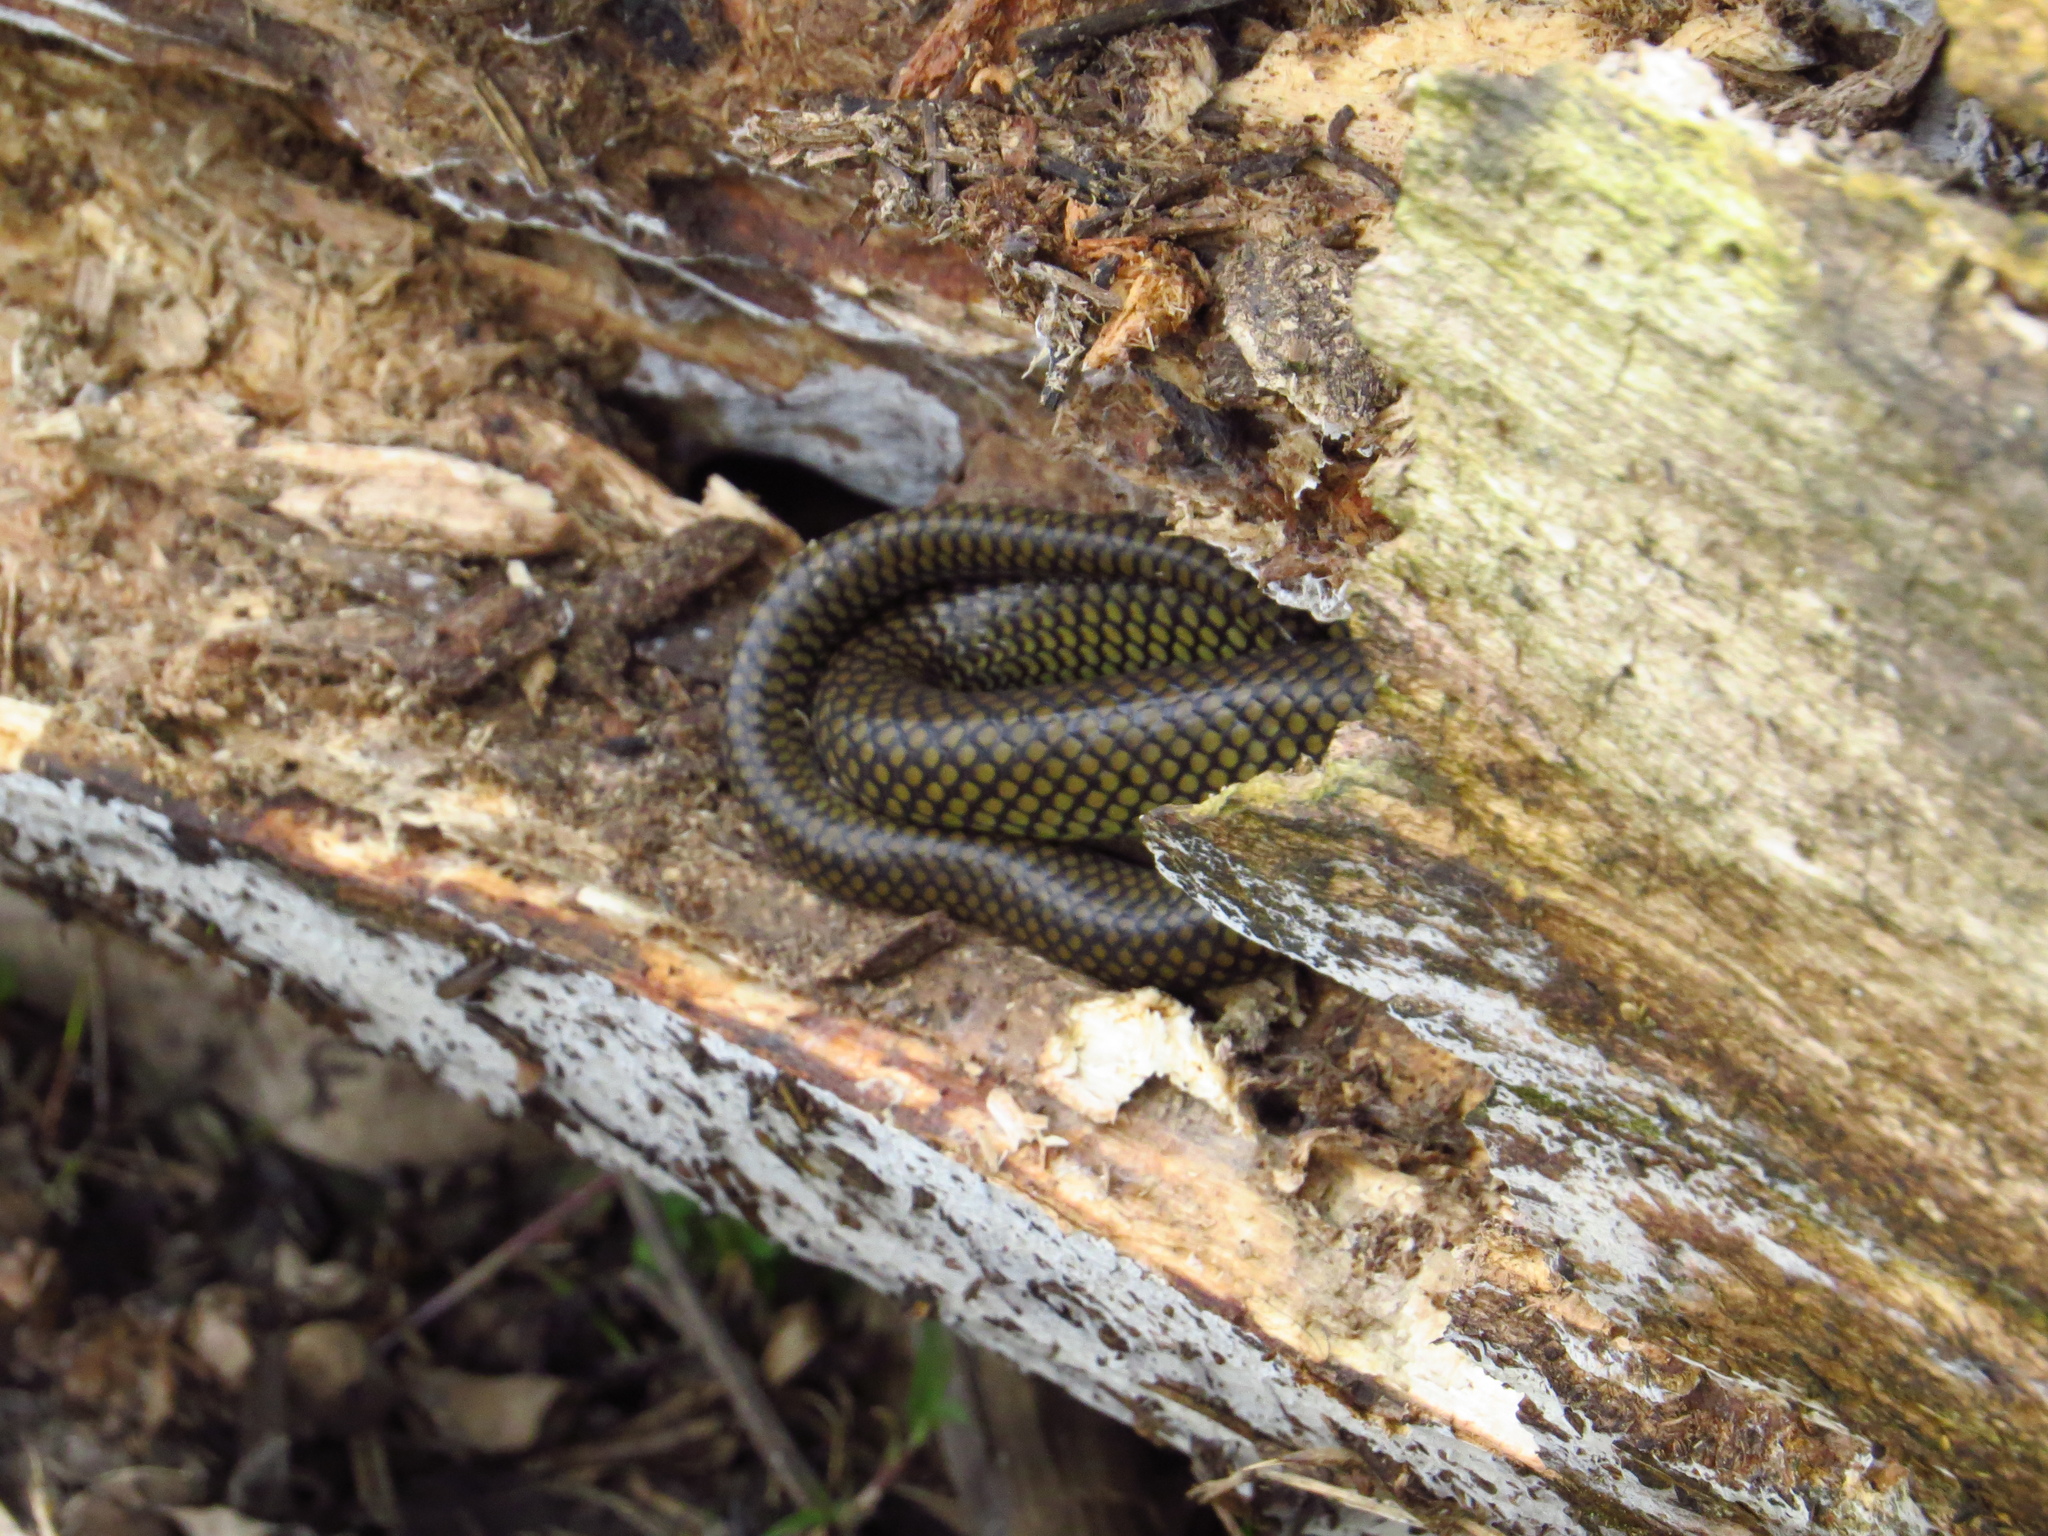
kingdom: Animalia
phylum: Chordata
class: Squamata
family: Colubridae
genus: Erythrolamprus
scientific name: Erythrolamprus semiaureus
